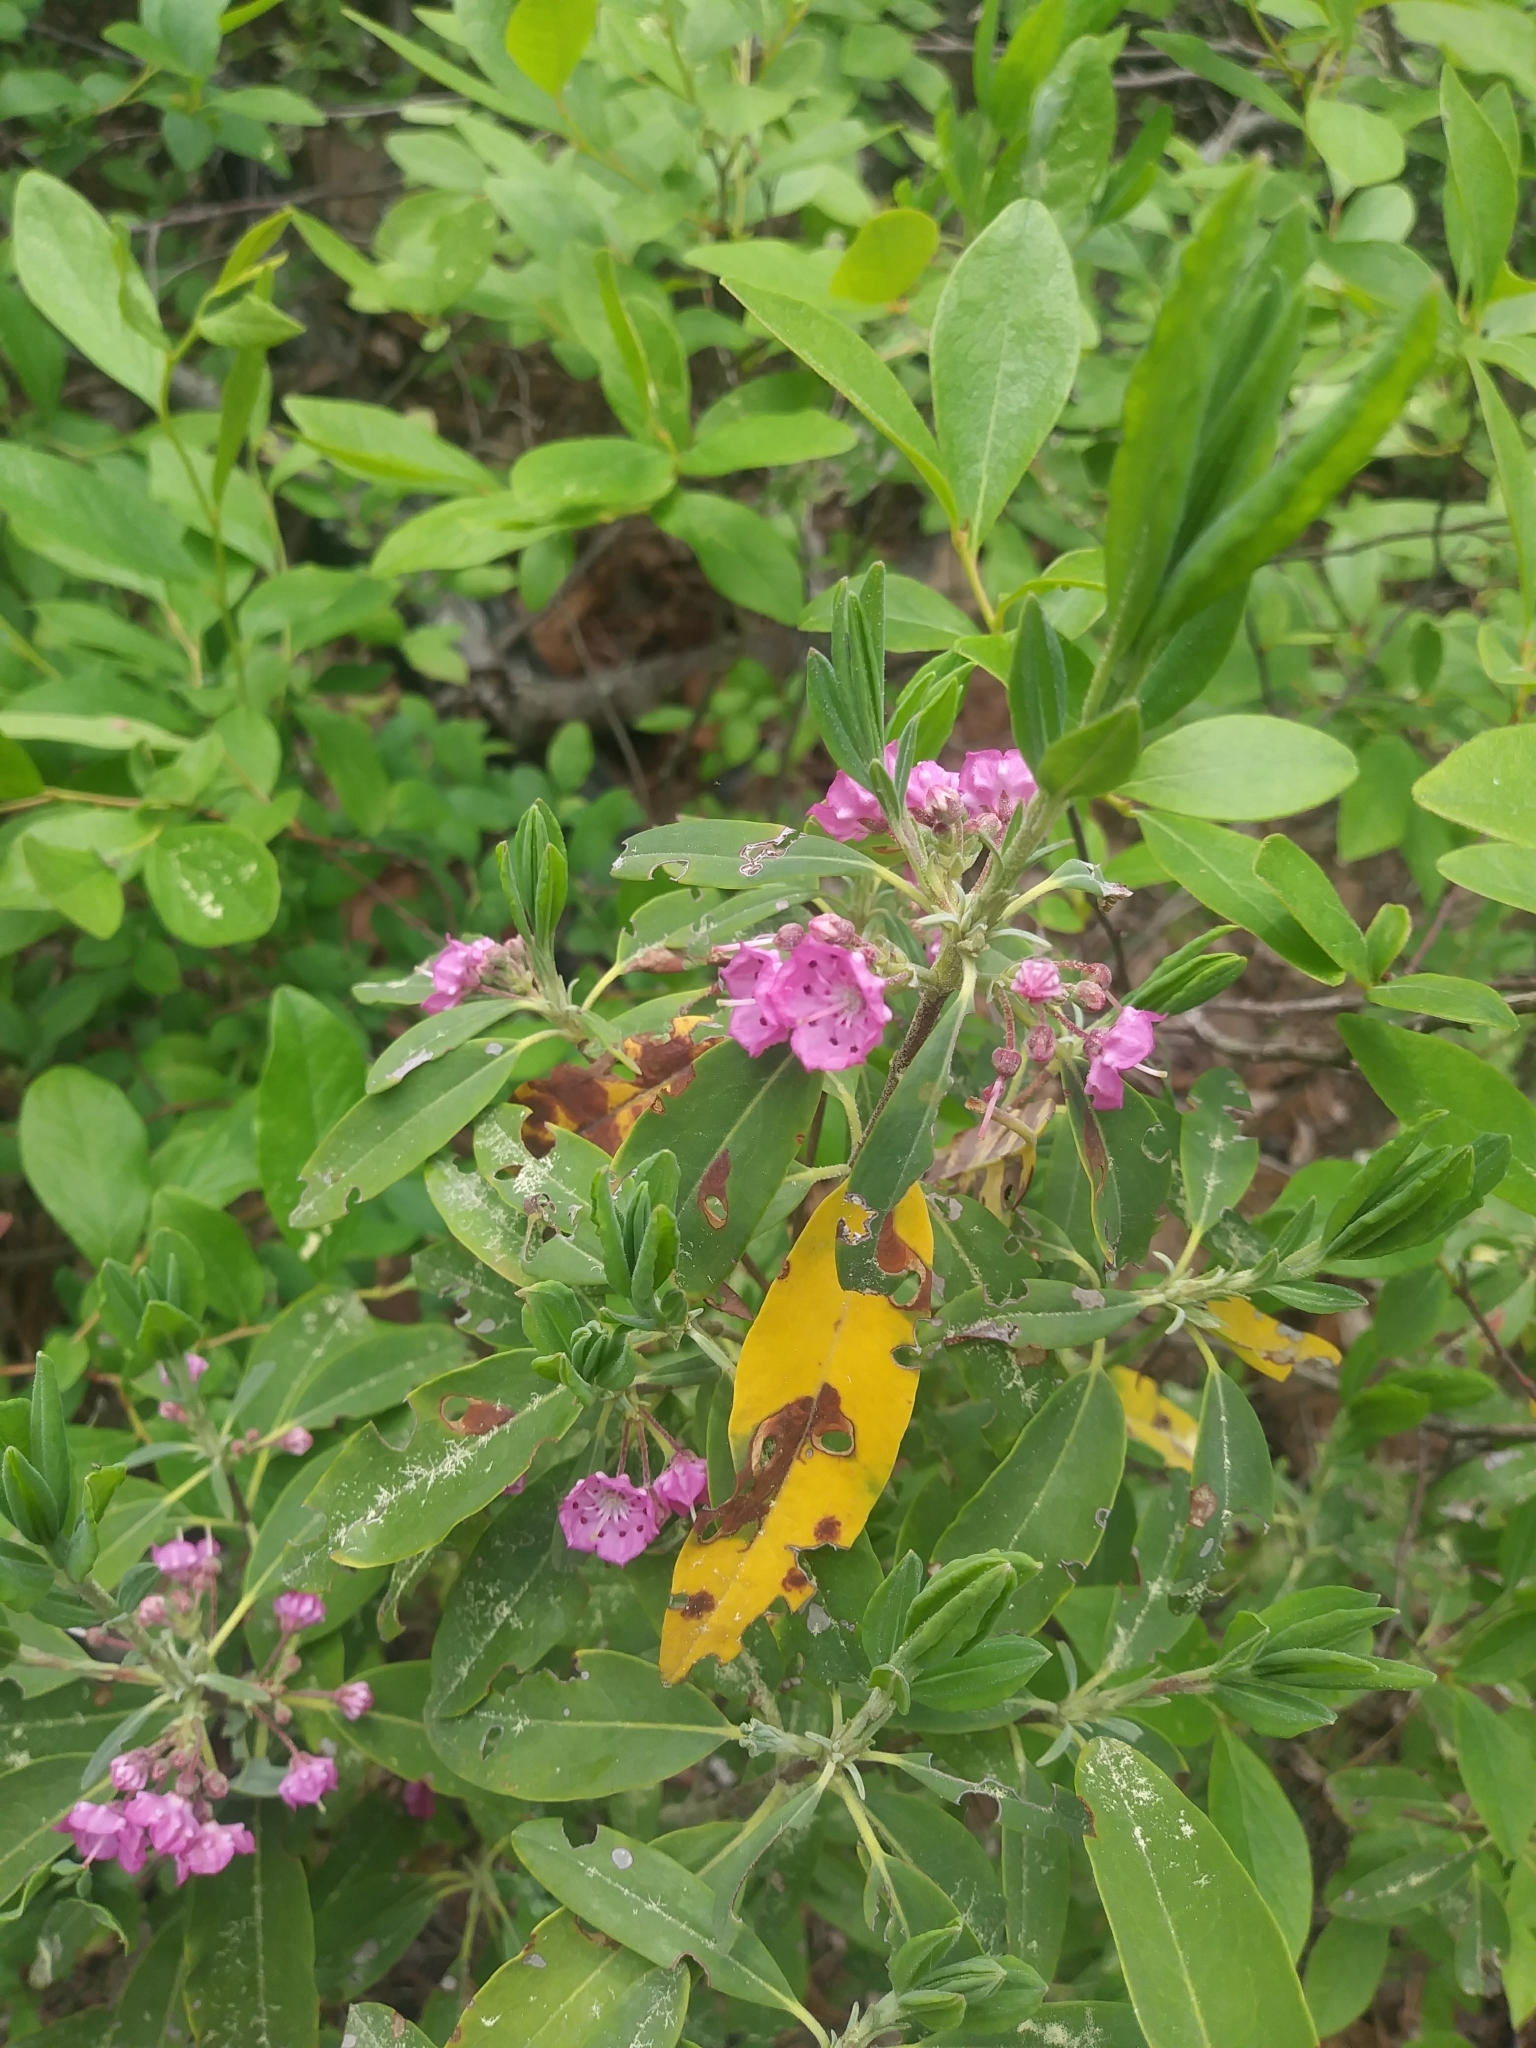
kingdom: Plantae
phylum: Tracheophyta
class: Magnoliopsida
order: Ericales
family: Ericaceae
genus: Kalmia
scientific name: Kalmia angustifolia
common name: Sheep-laurel
